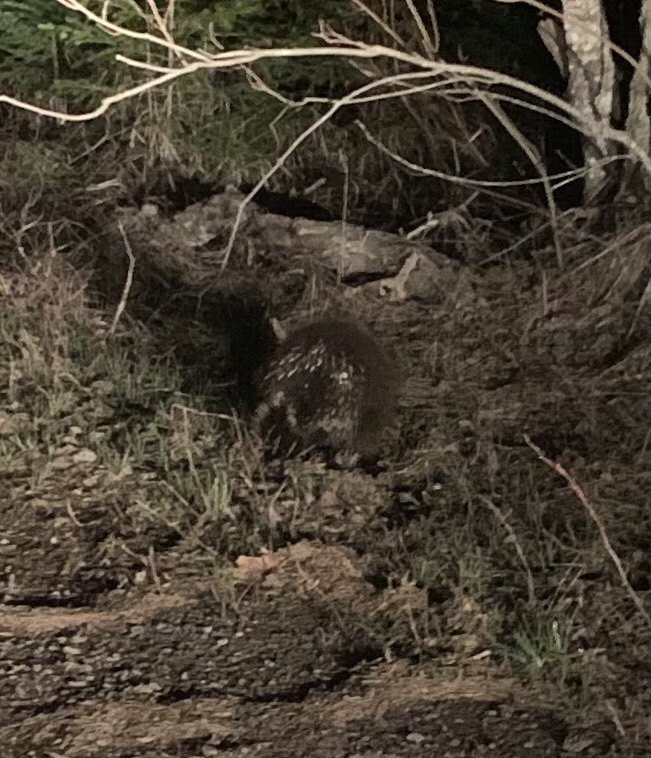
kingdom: Animalia
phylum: Chordata
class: Mammalia
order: Rodentia
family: Erethizontidae
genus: Erethizon
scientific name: Erethizon dorsatus
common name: North american porcupine
